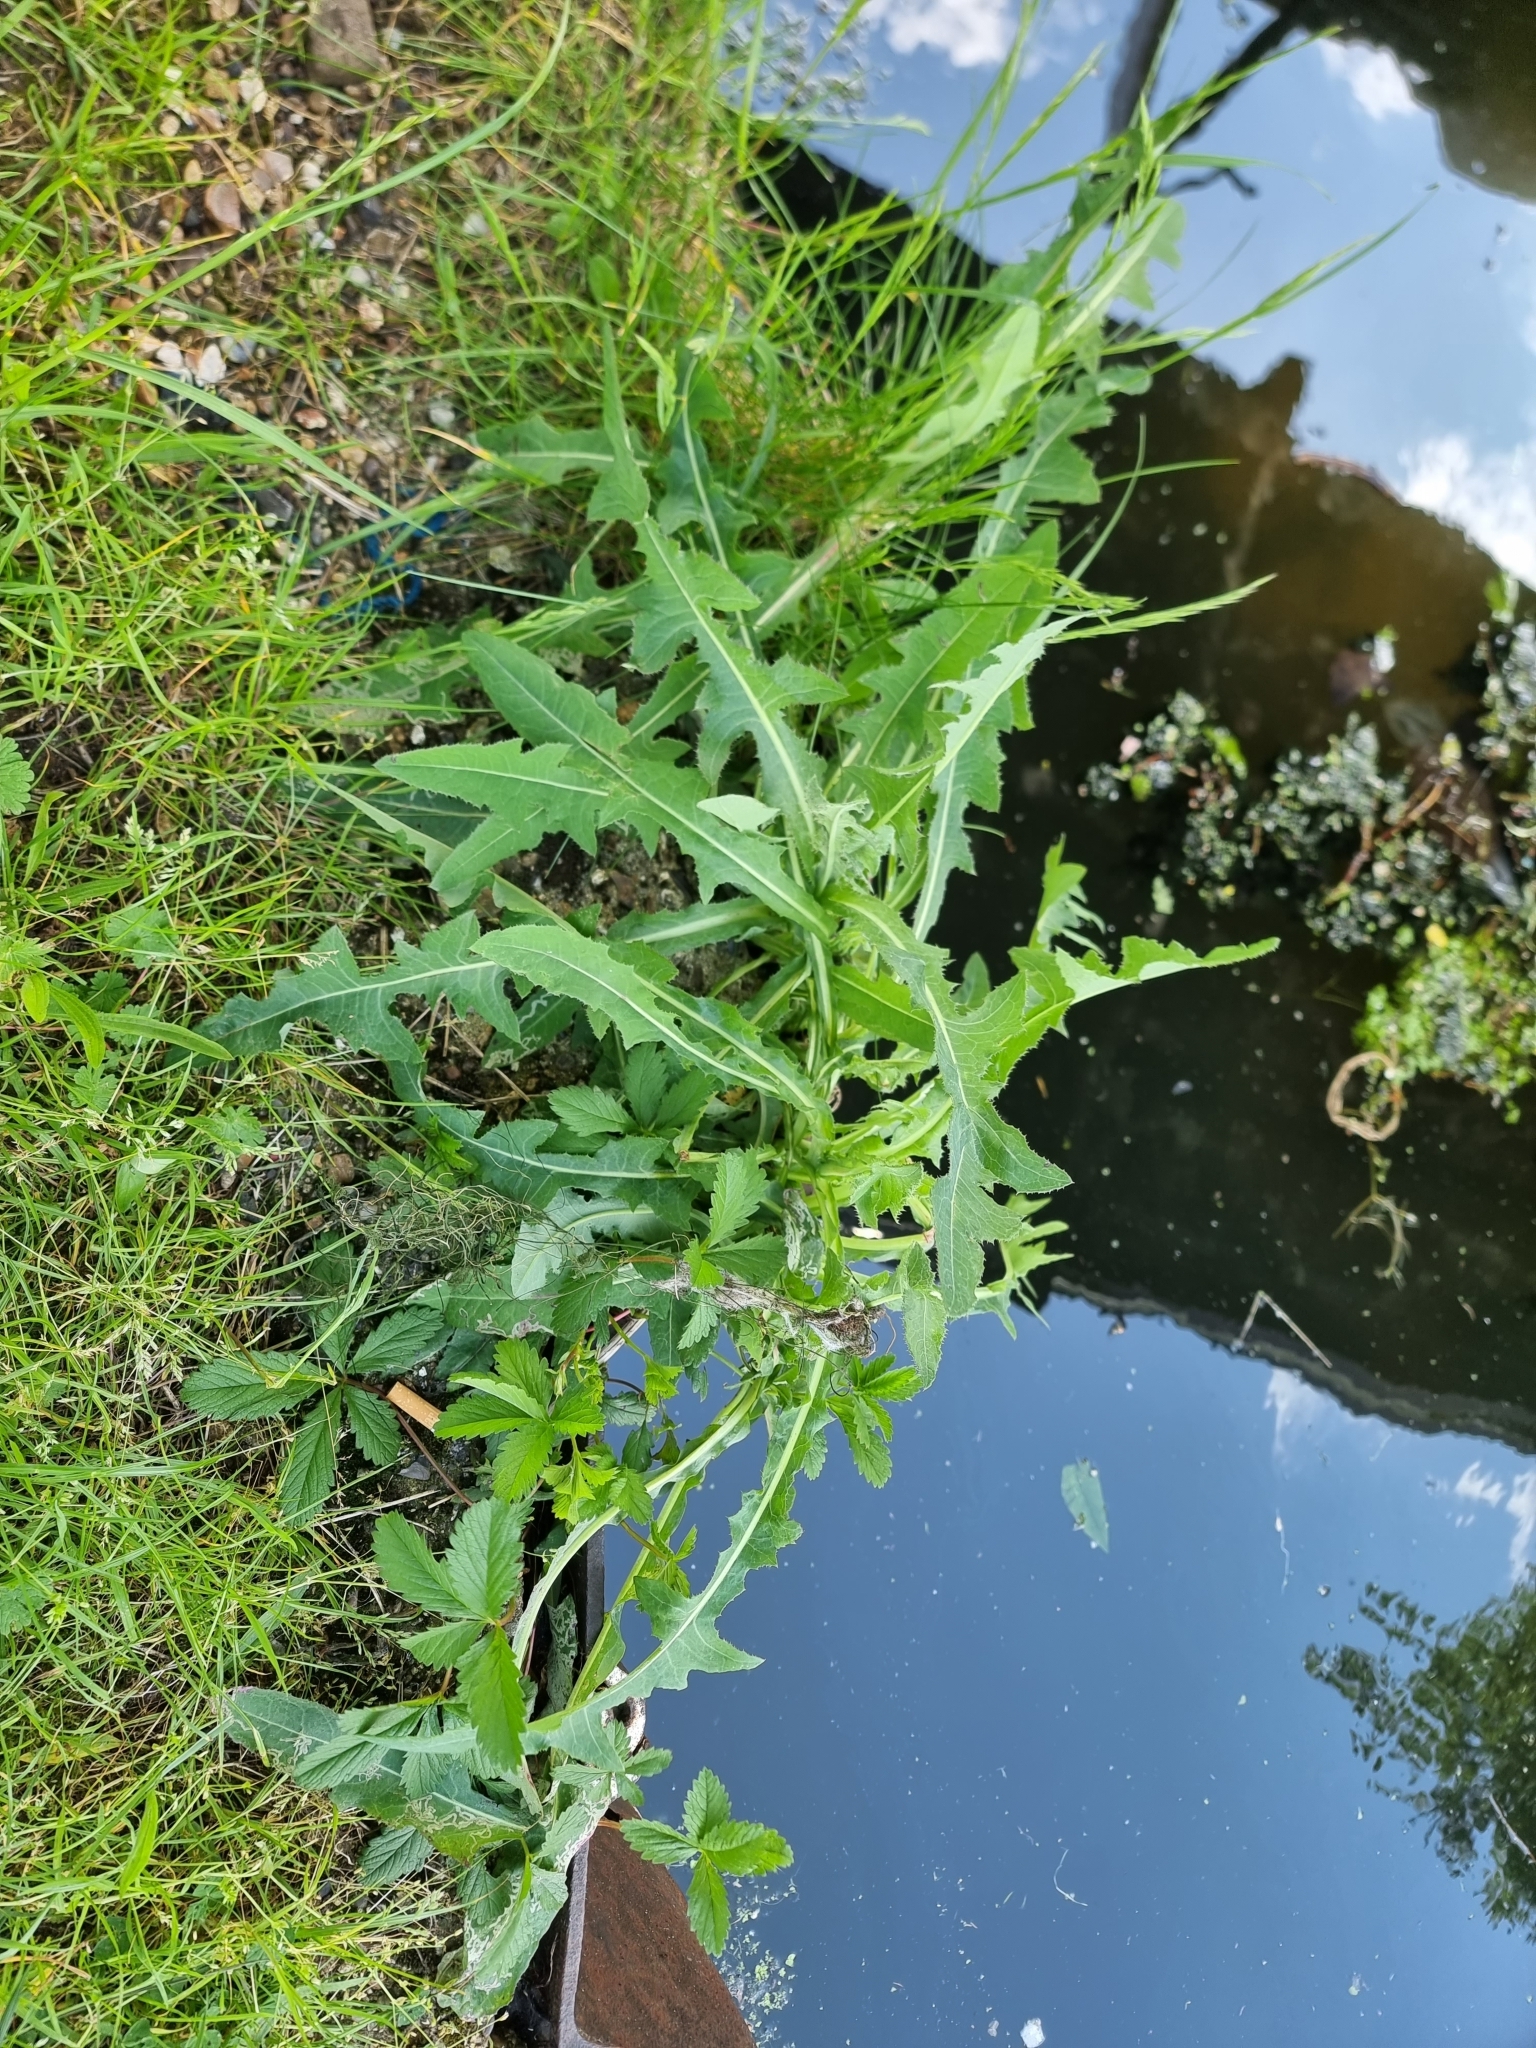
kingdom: Plantae
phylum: Tracheophyta
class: Magnoliopsida
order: Asterales
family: Asteraceae
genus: Sonchus
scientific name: Sonchus arvensis
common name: Perennial sow-thistle
